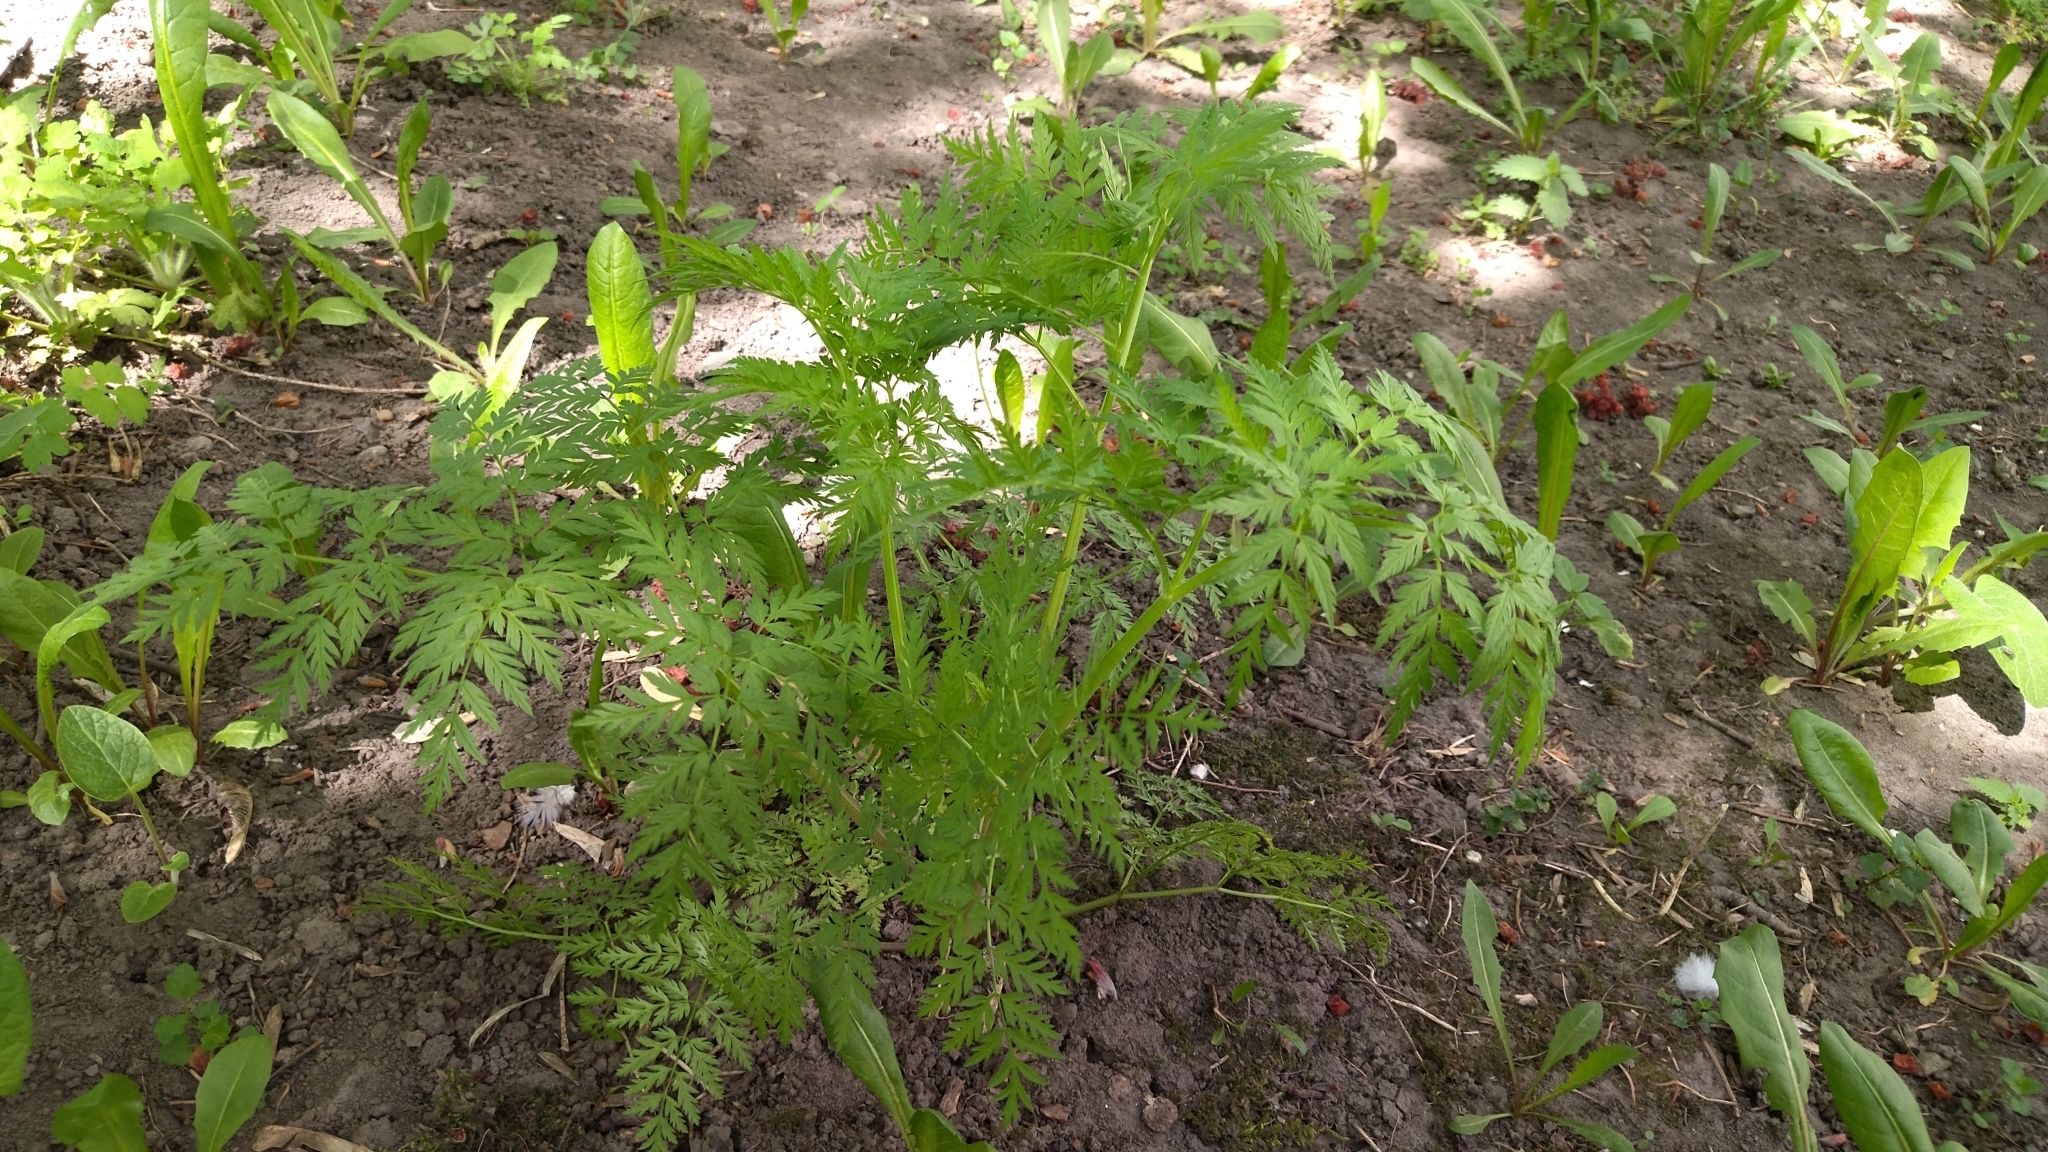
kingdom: Plantae
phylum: Tracheophyta
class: Magnoliopsida
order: Apiales
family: Apiaceae
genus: Anthriscus
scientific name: Anthriscus sylvestris
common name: Cow parsley
